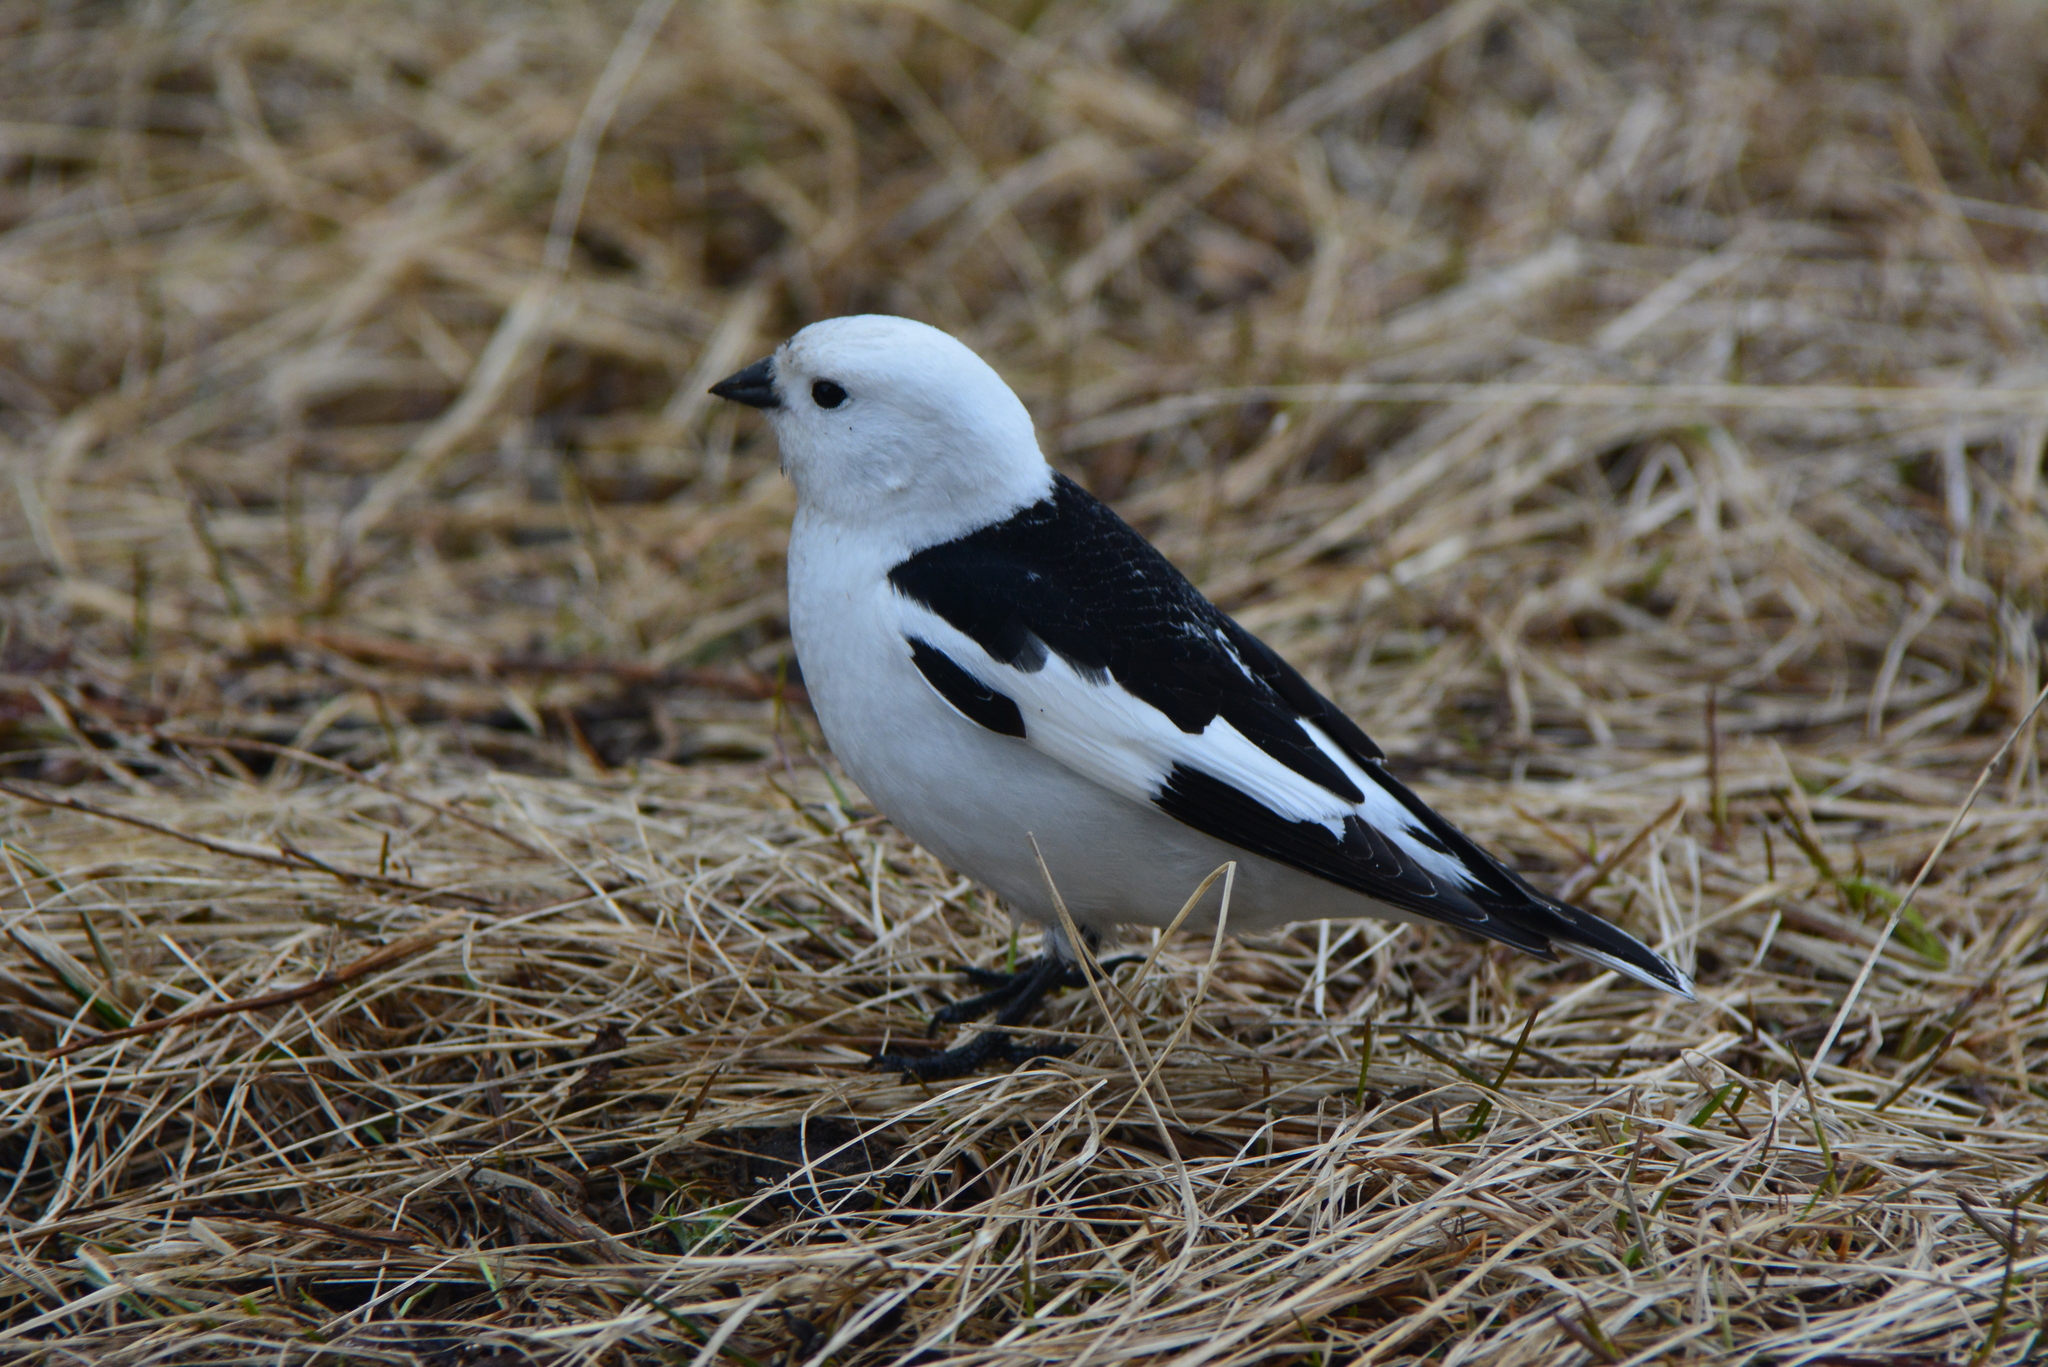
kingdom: Animalia
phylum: Chordata
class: Aves
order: Passeriformes
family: Calcariidae
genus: Plectrophenax
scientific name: Plectrophenax nivalis
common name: Snow bunting
